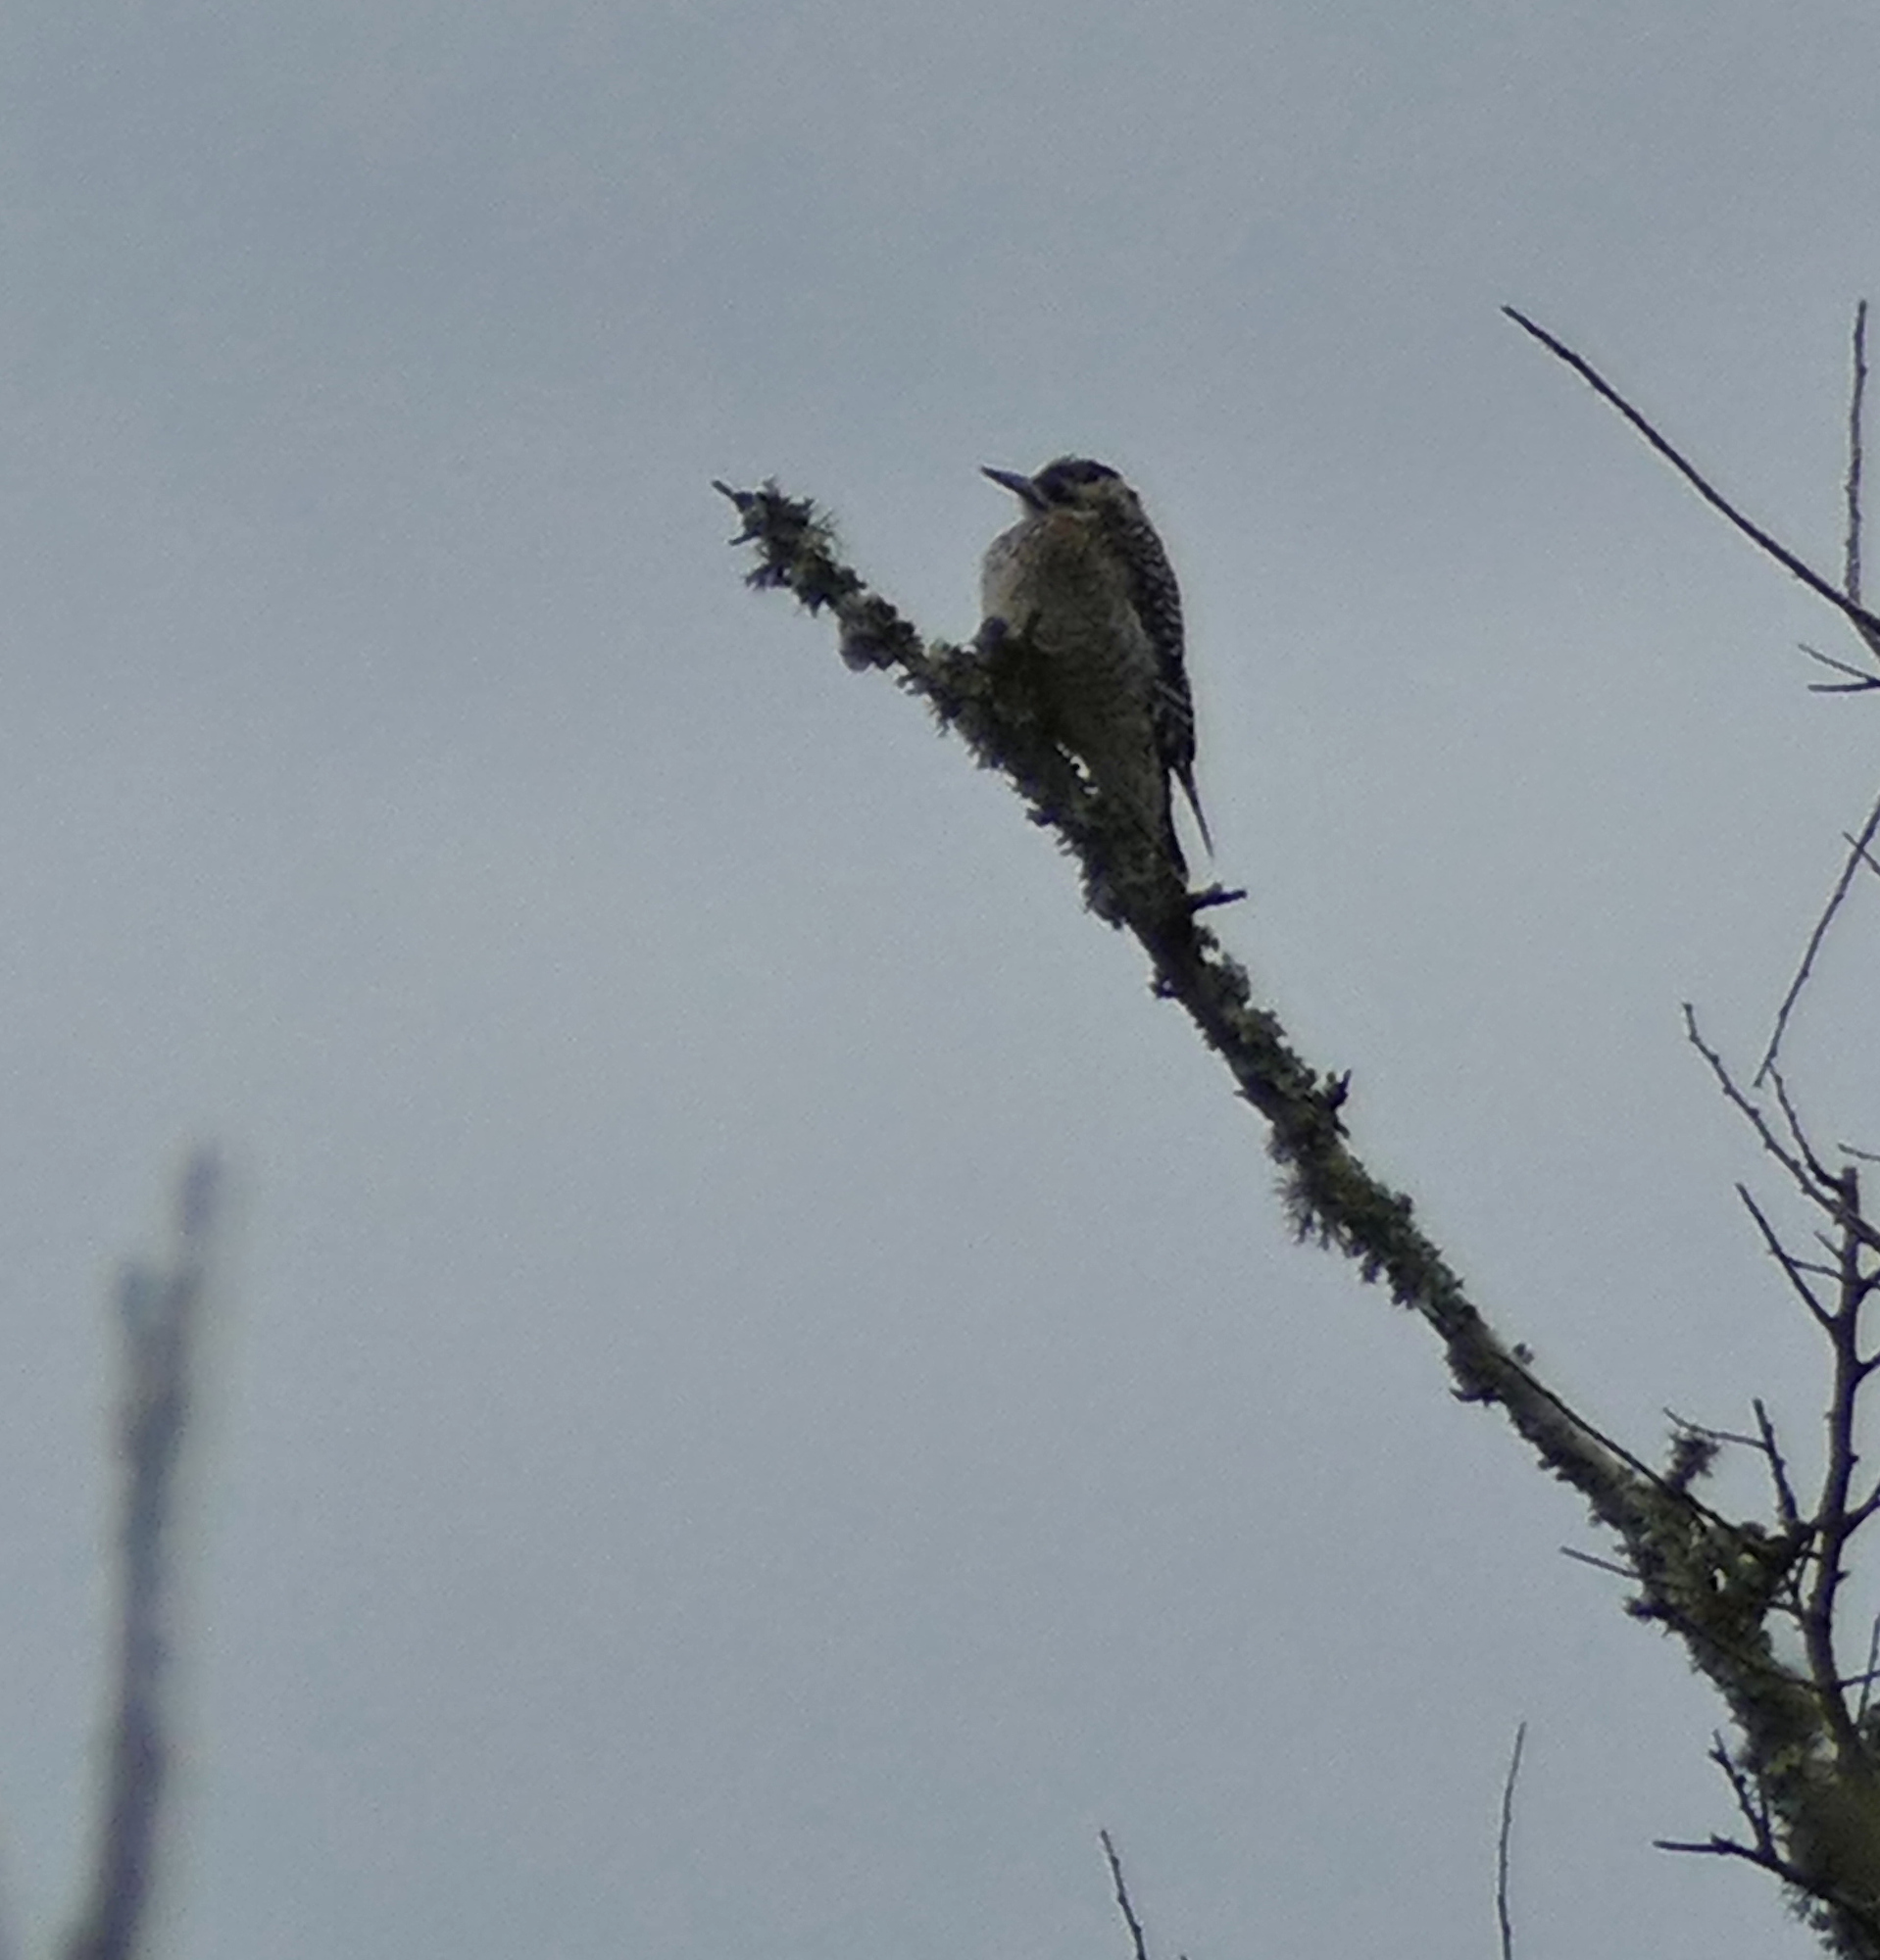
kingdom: Animalia
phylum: Chordata
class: Aves
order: Piciformes
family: Picidae
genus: Dryobates
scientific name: Dryobates scalaris
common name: Ladder-backed woodpecker
